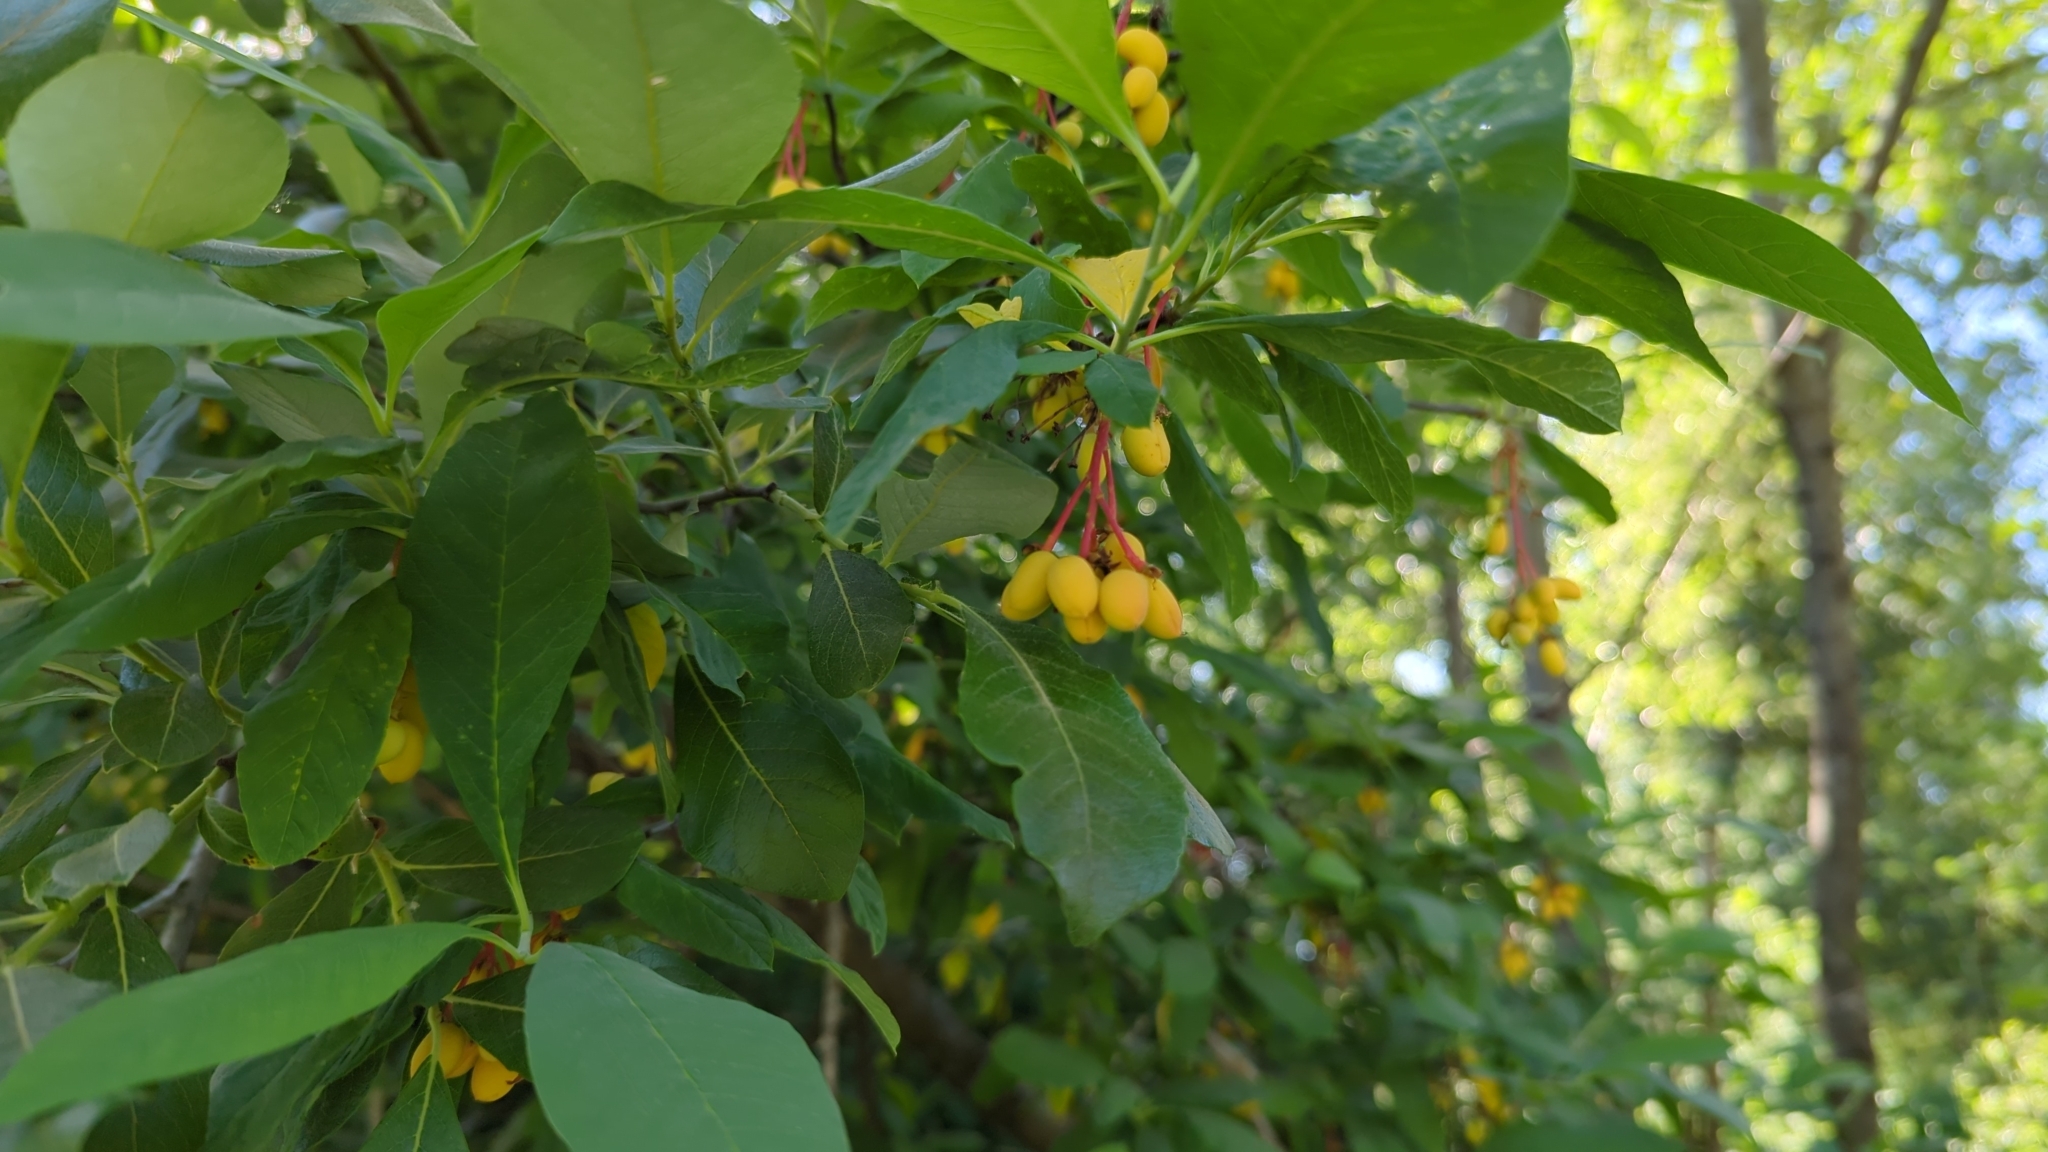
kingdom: Plantae
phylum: Tracheophyta
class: Magnoliopsida
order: Rosales
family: Rosaceae
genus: Oemleria
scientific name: Oemleria cerasiformis
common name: Osoberry
